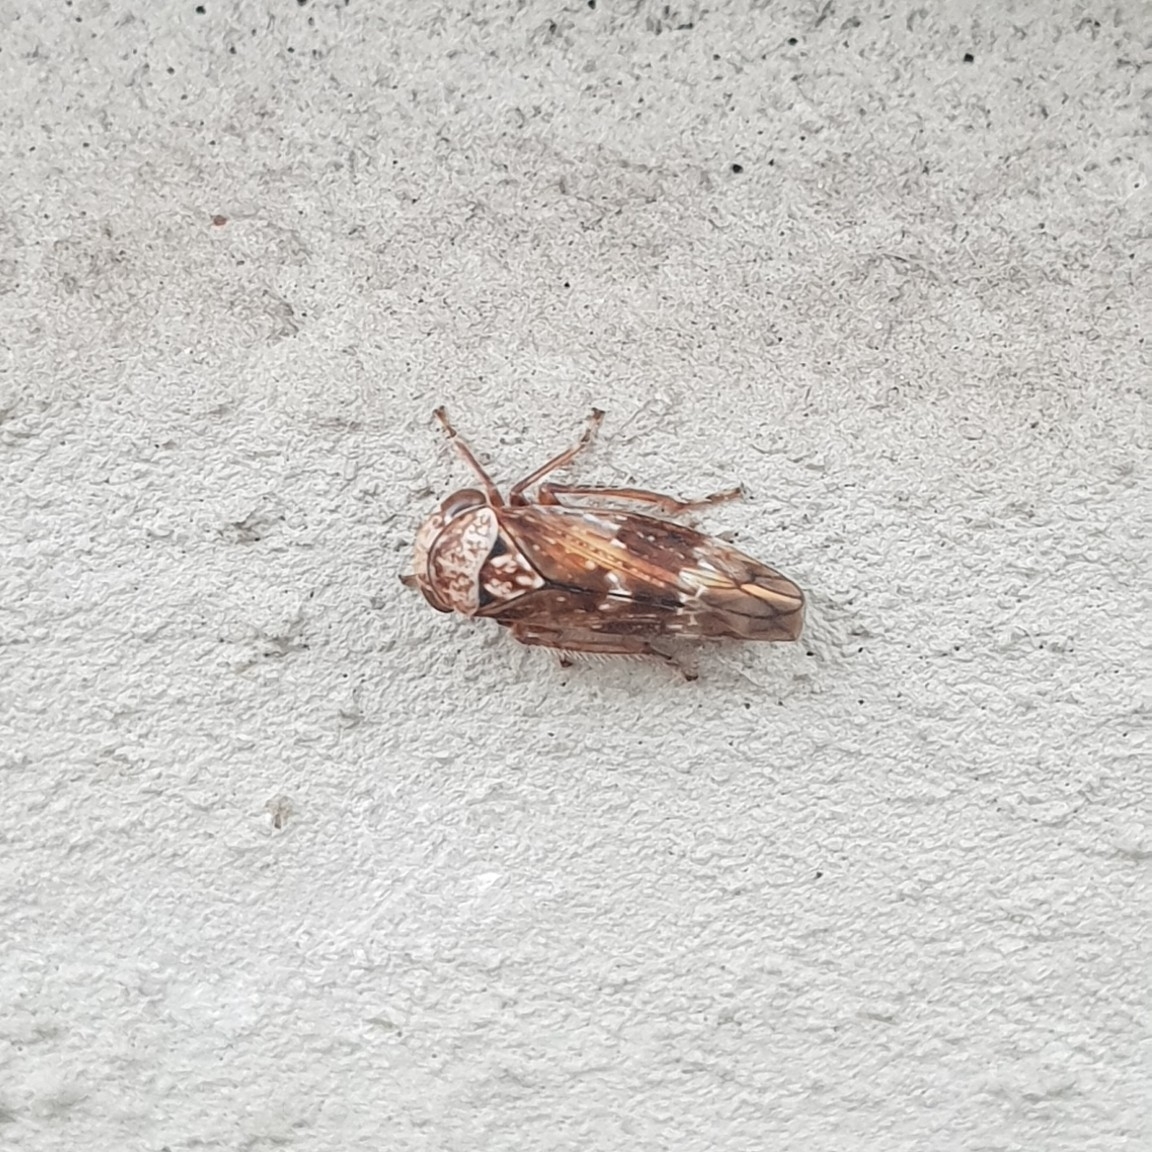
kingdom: Animalia
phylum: Arthropoda
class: Insecta
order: Hemiptera
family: Cicadellidae
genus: Acericerus
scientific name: Acericerus ribauti
